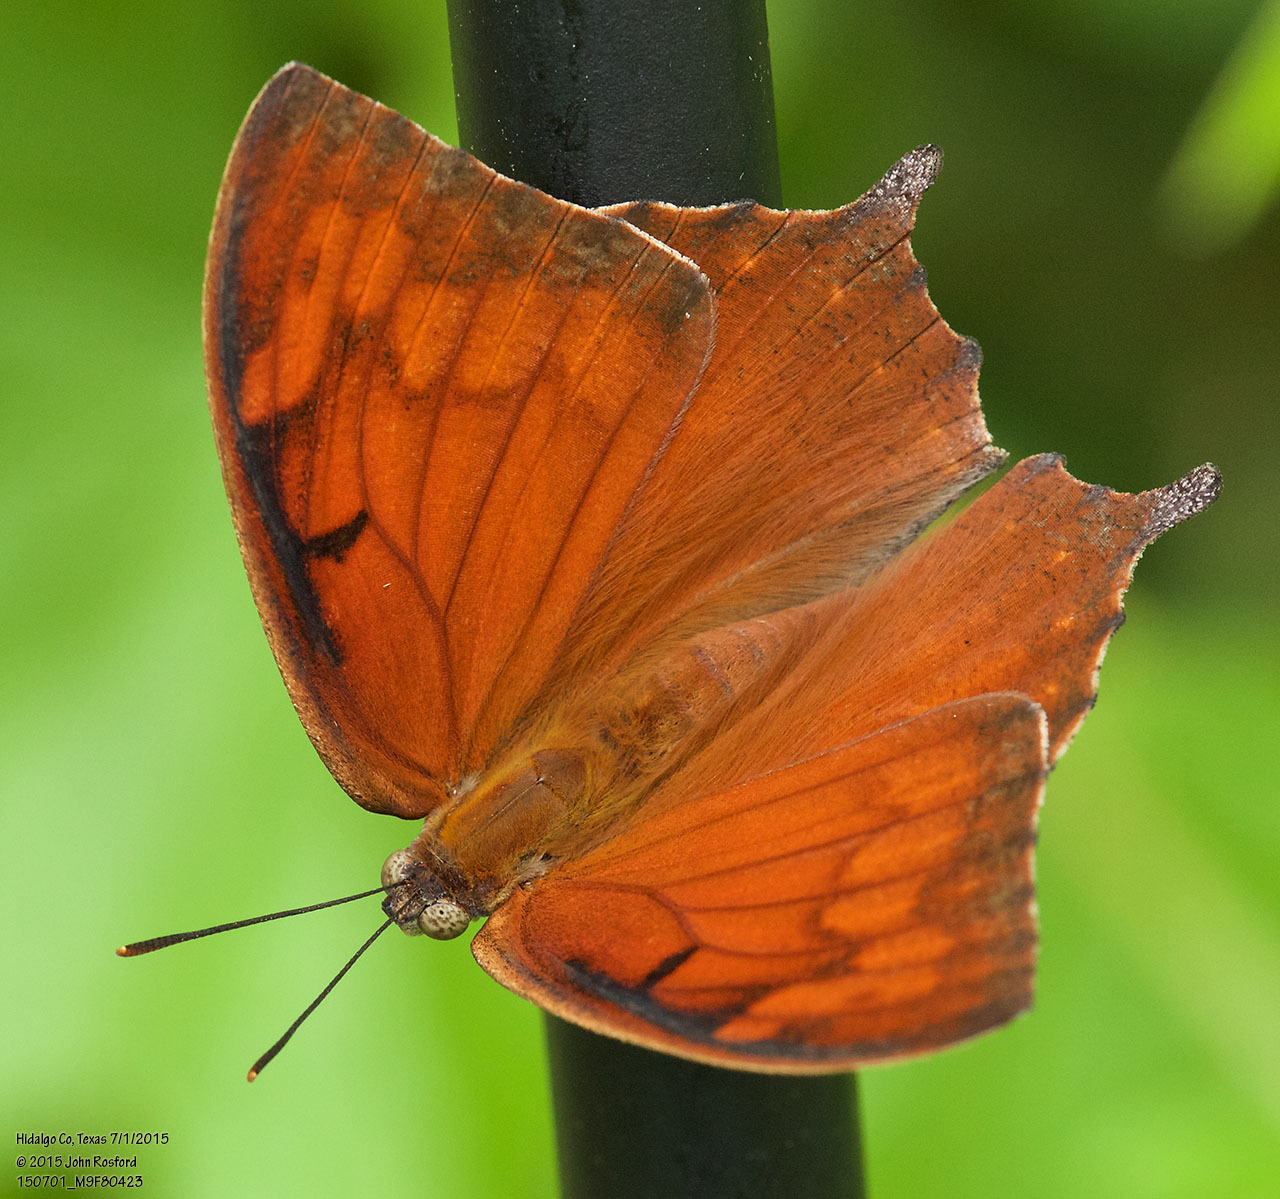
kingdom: Animalia
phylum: Arthropoda
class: Insecta
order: Lepidoptera
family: Nymphalidae
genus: Anaea
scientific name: Anaea aidea
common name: Tropical leafwing
